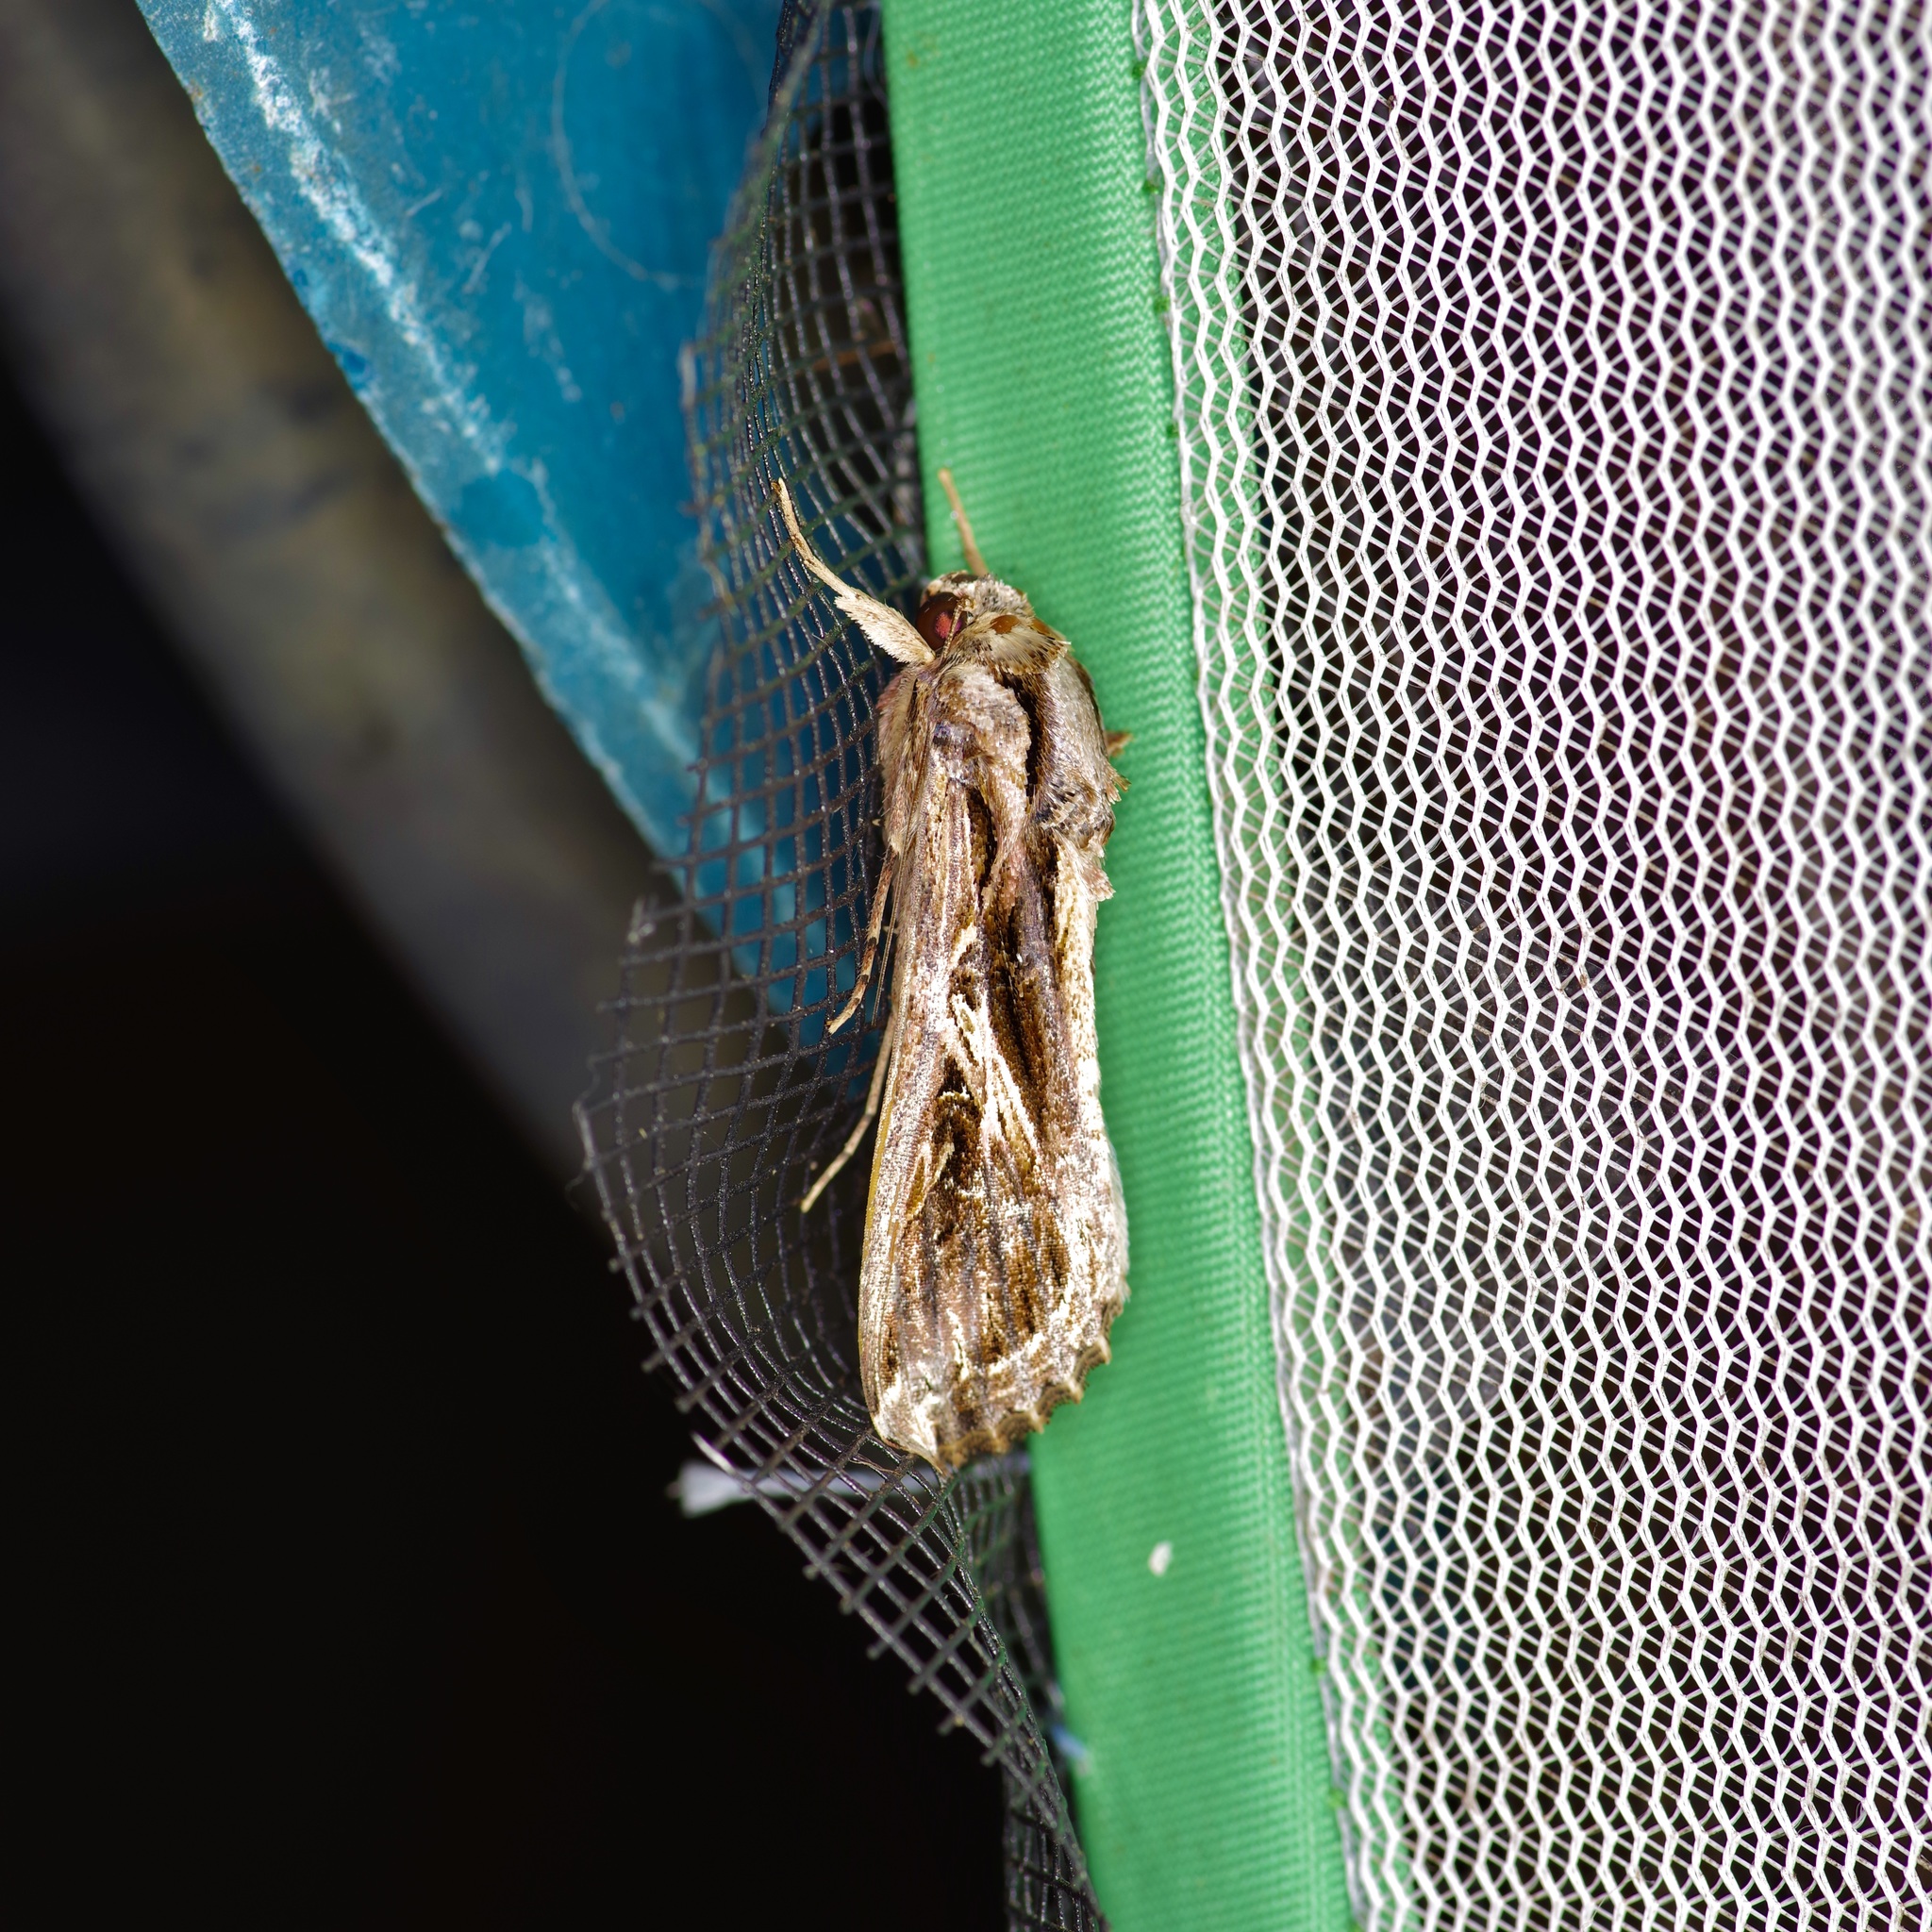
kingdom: Animalia
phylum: Arthropoda
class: Insecta
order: Lepidoptera
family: Noctuidae
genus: Spodoptera
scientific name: Spodoptera dolichos
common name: Sweetpotato armyworm
